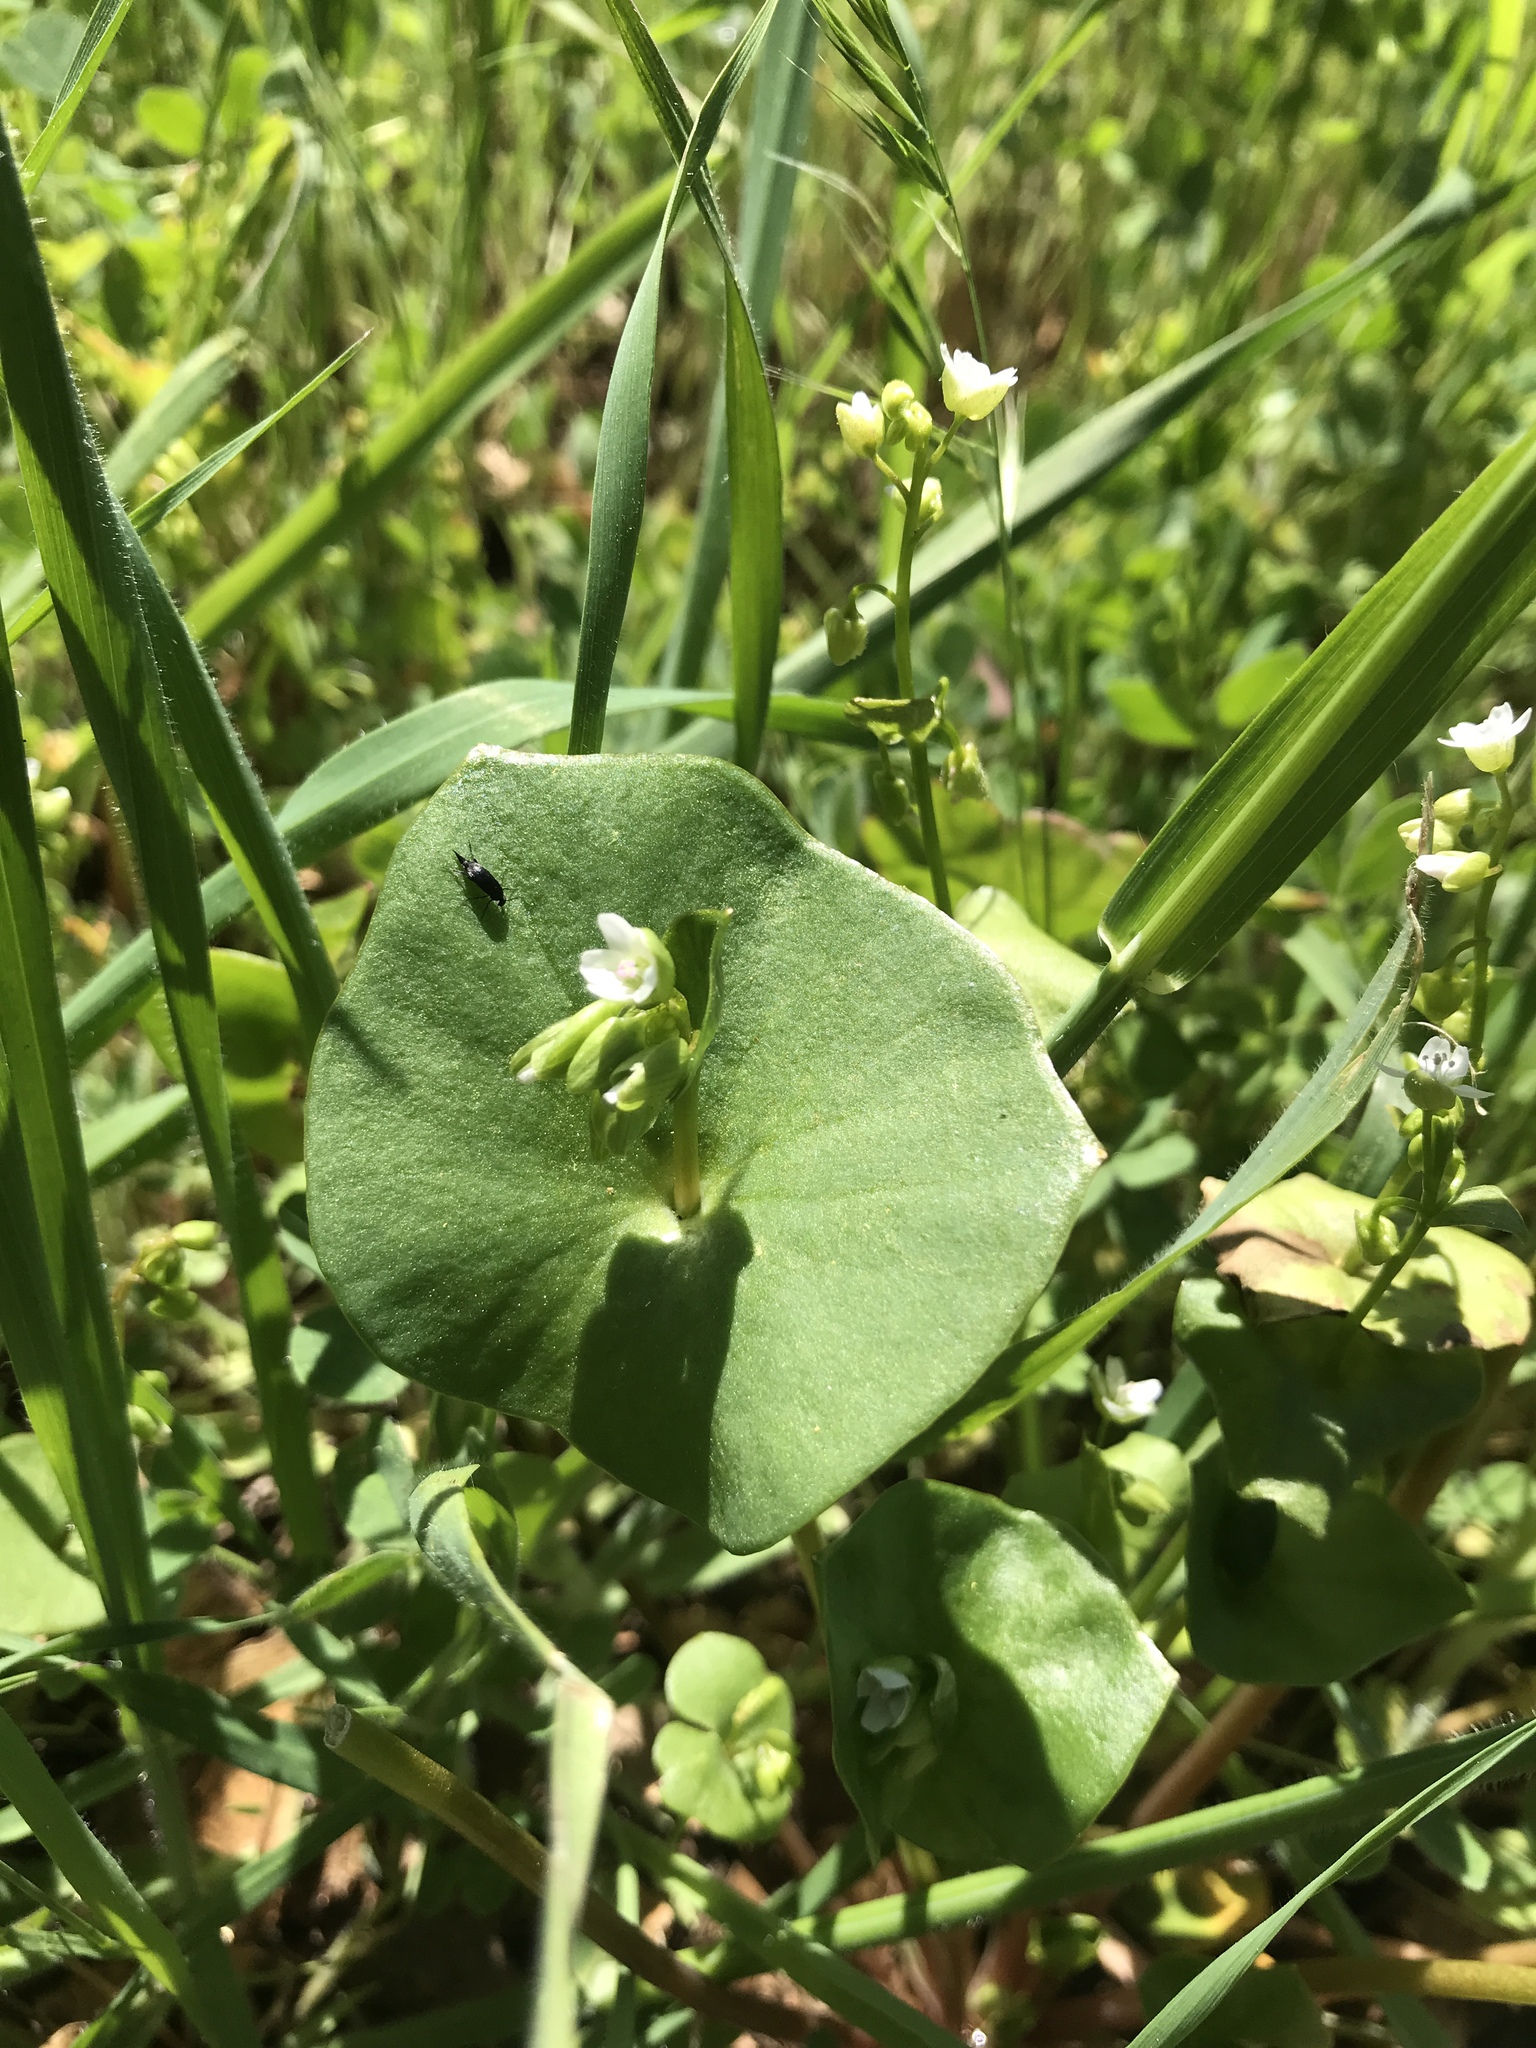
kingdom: Plantae
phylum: Tracheophyta
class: Magnoliopsida
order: Caryophyllales
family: Montiaceae
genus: Claytonia
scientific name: Claytonia perfoliata
